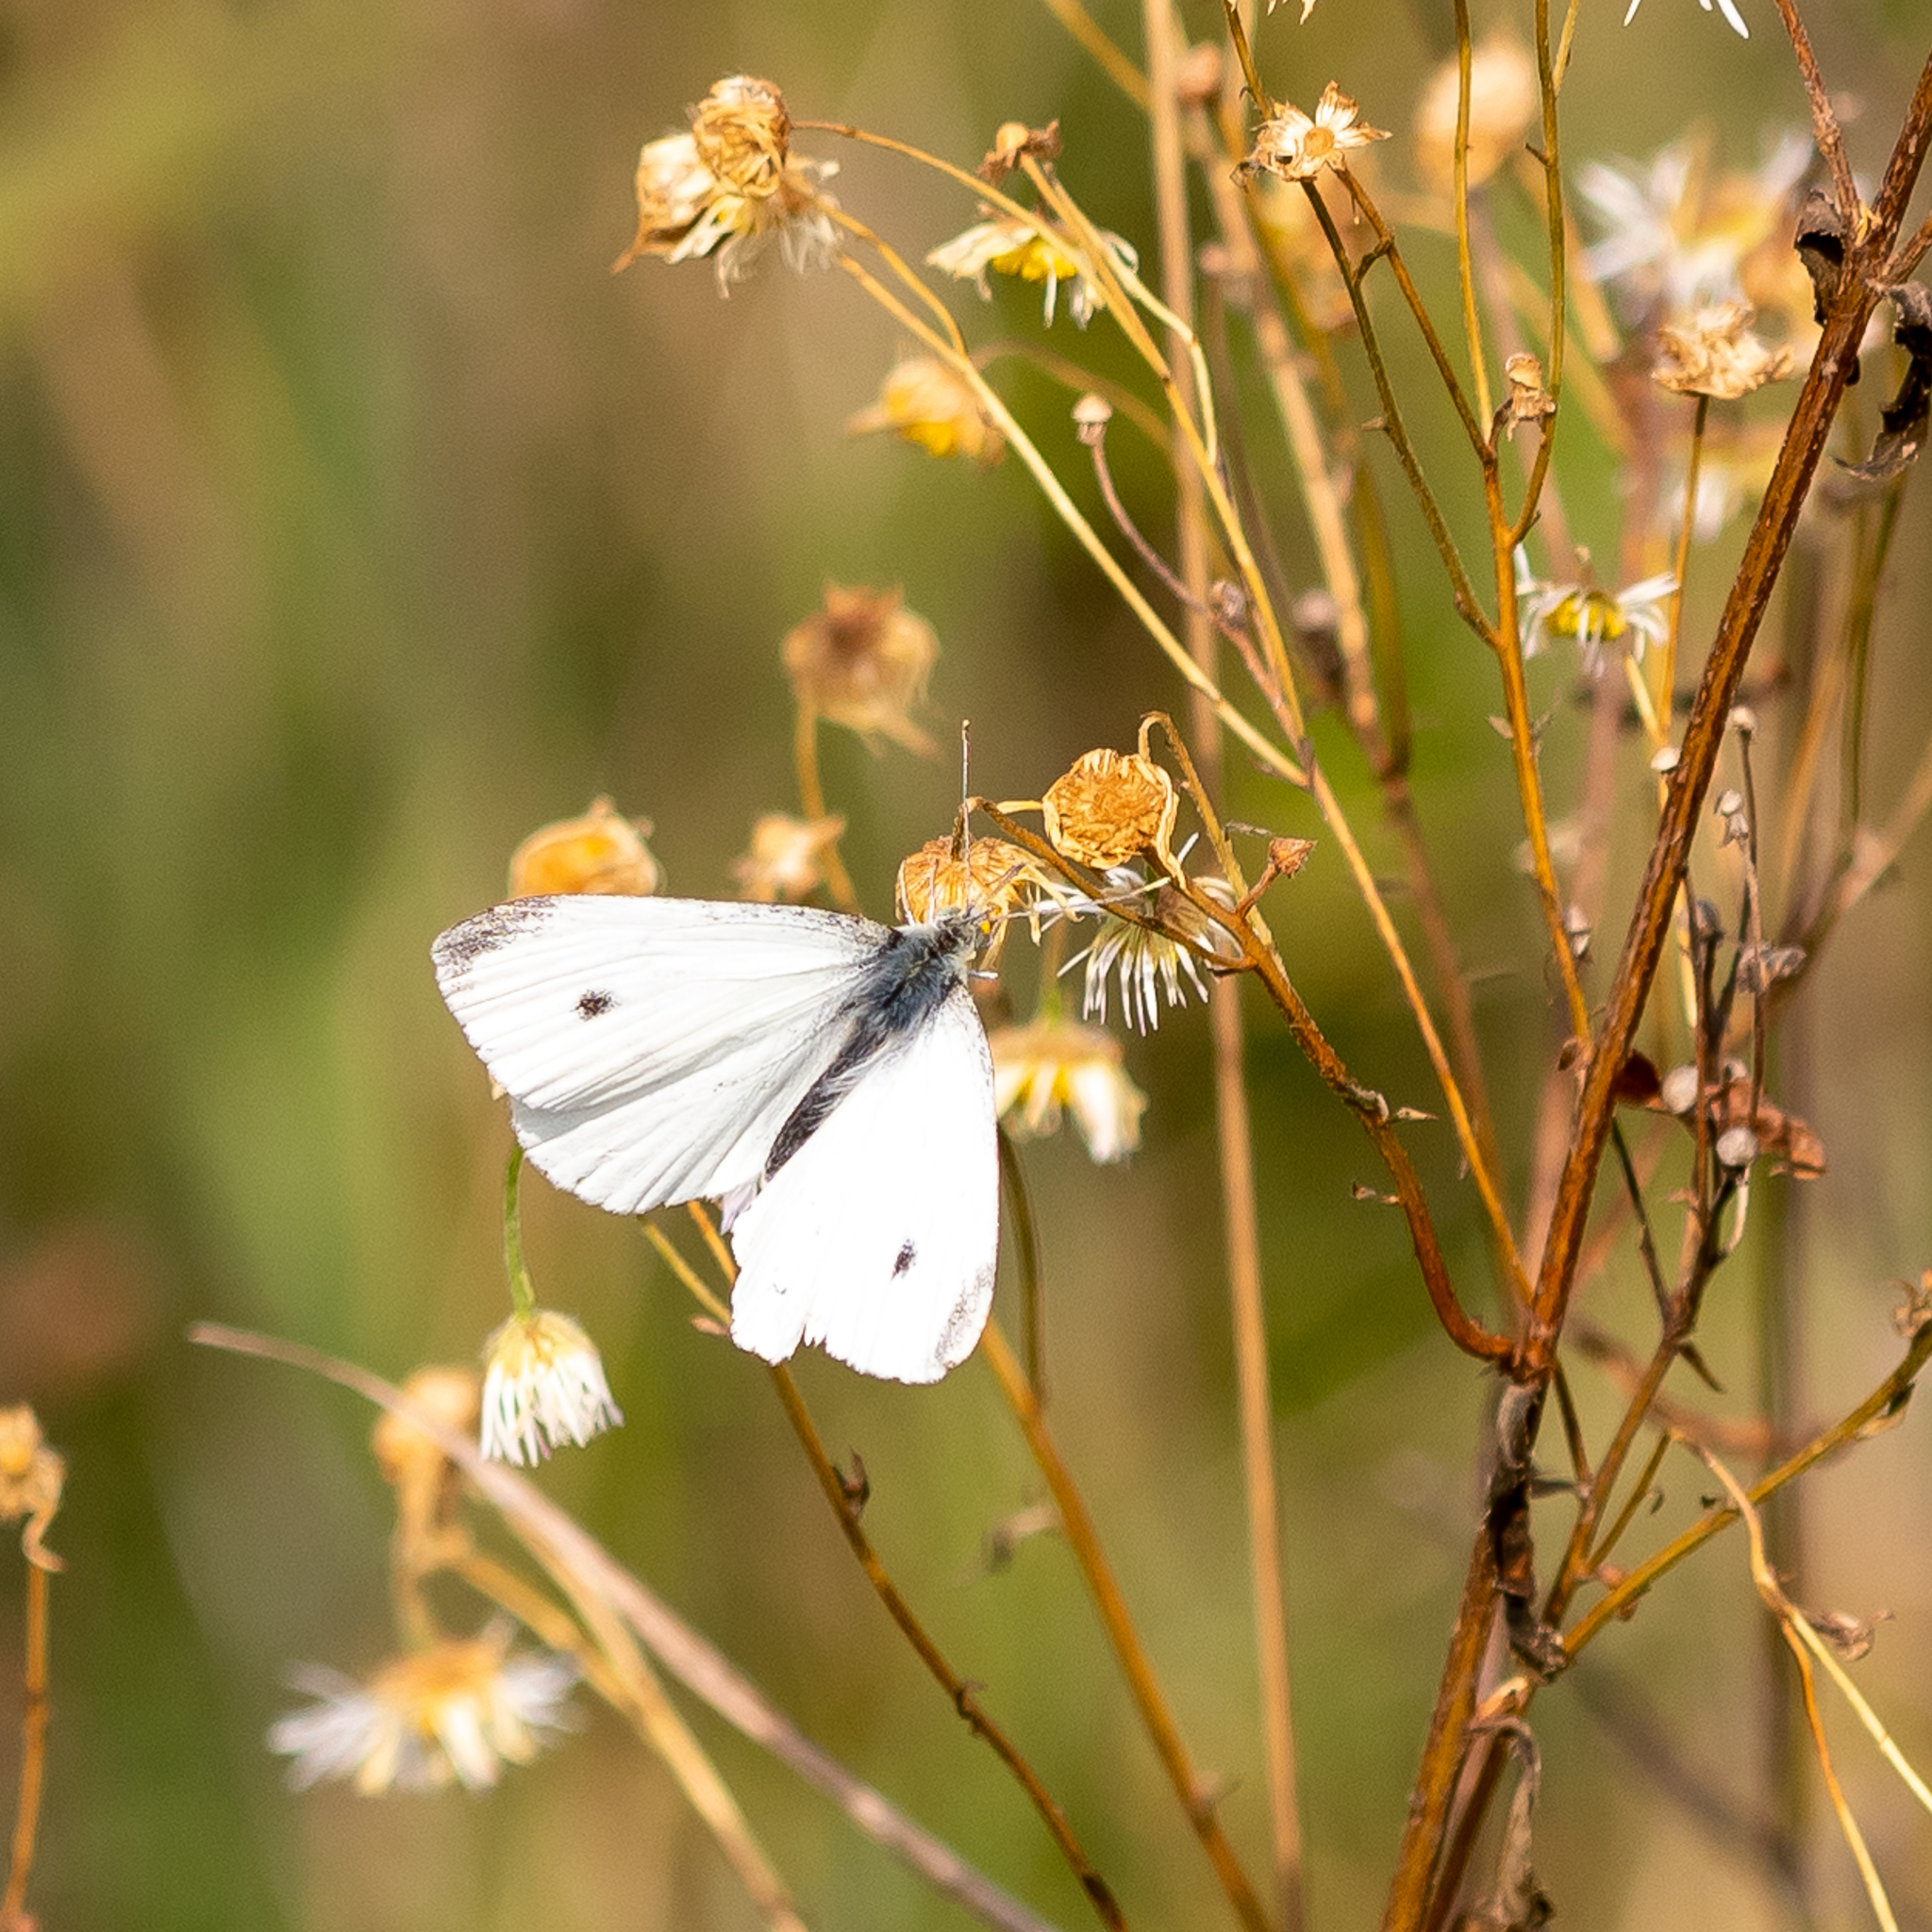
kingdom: Animalia
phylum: Arthropoda
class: Insecta
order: Lepidoptera
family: Pieridae
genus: Pieris
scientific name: Pieris rapae
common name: Small white
